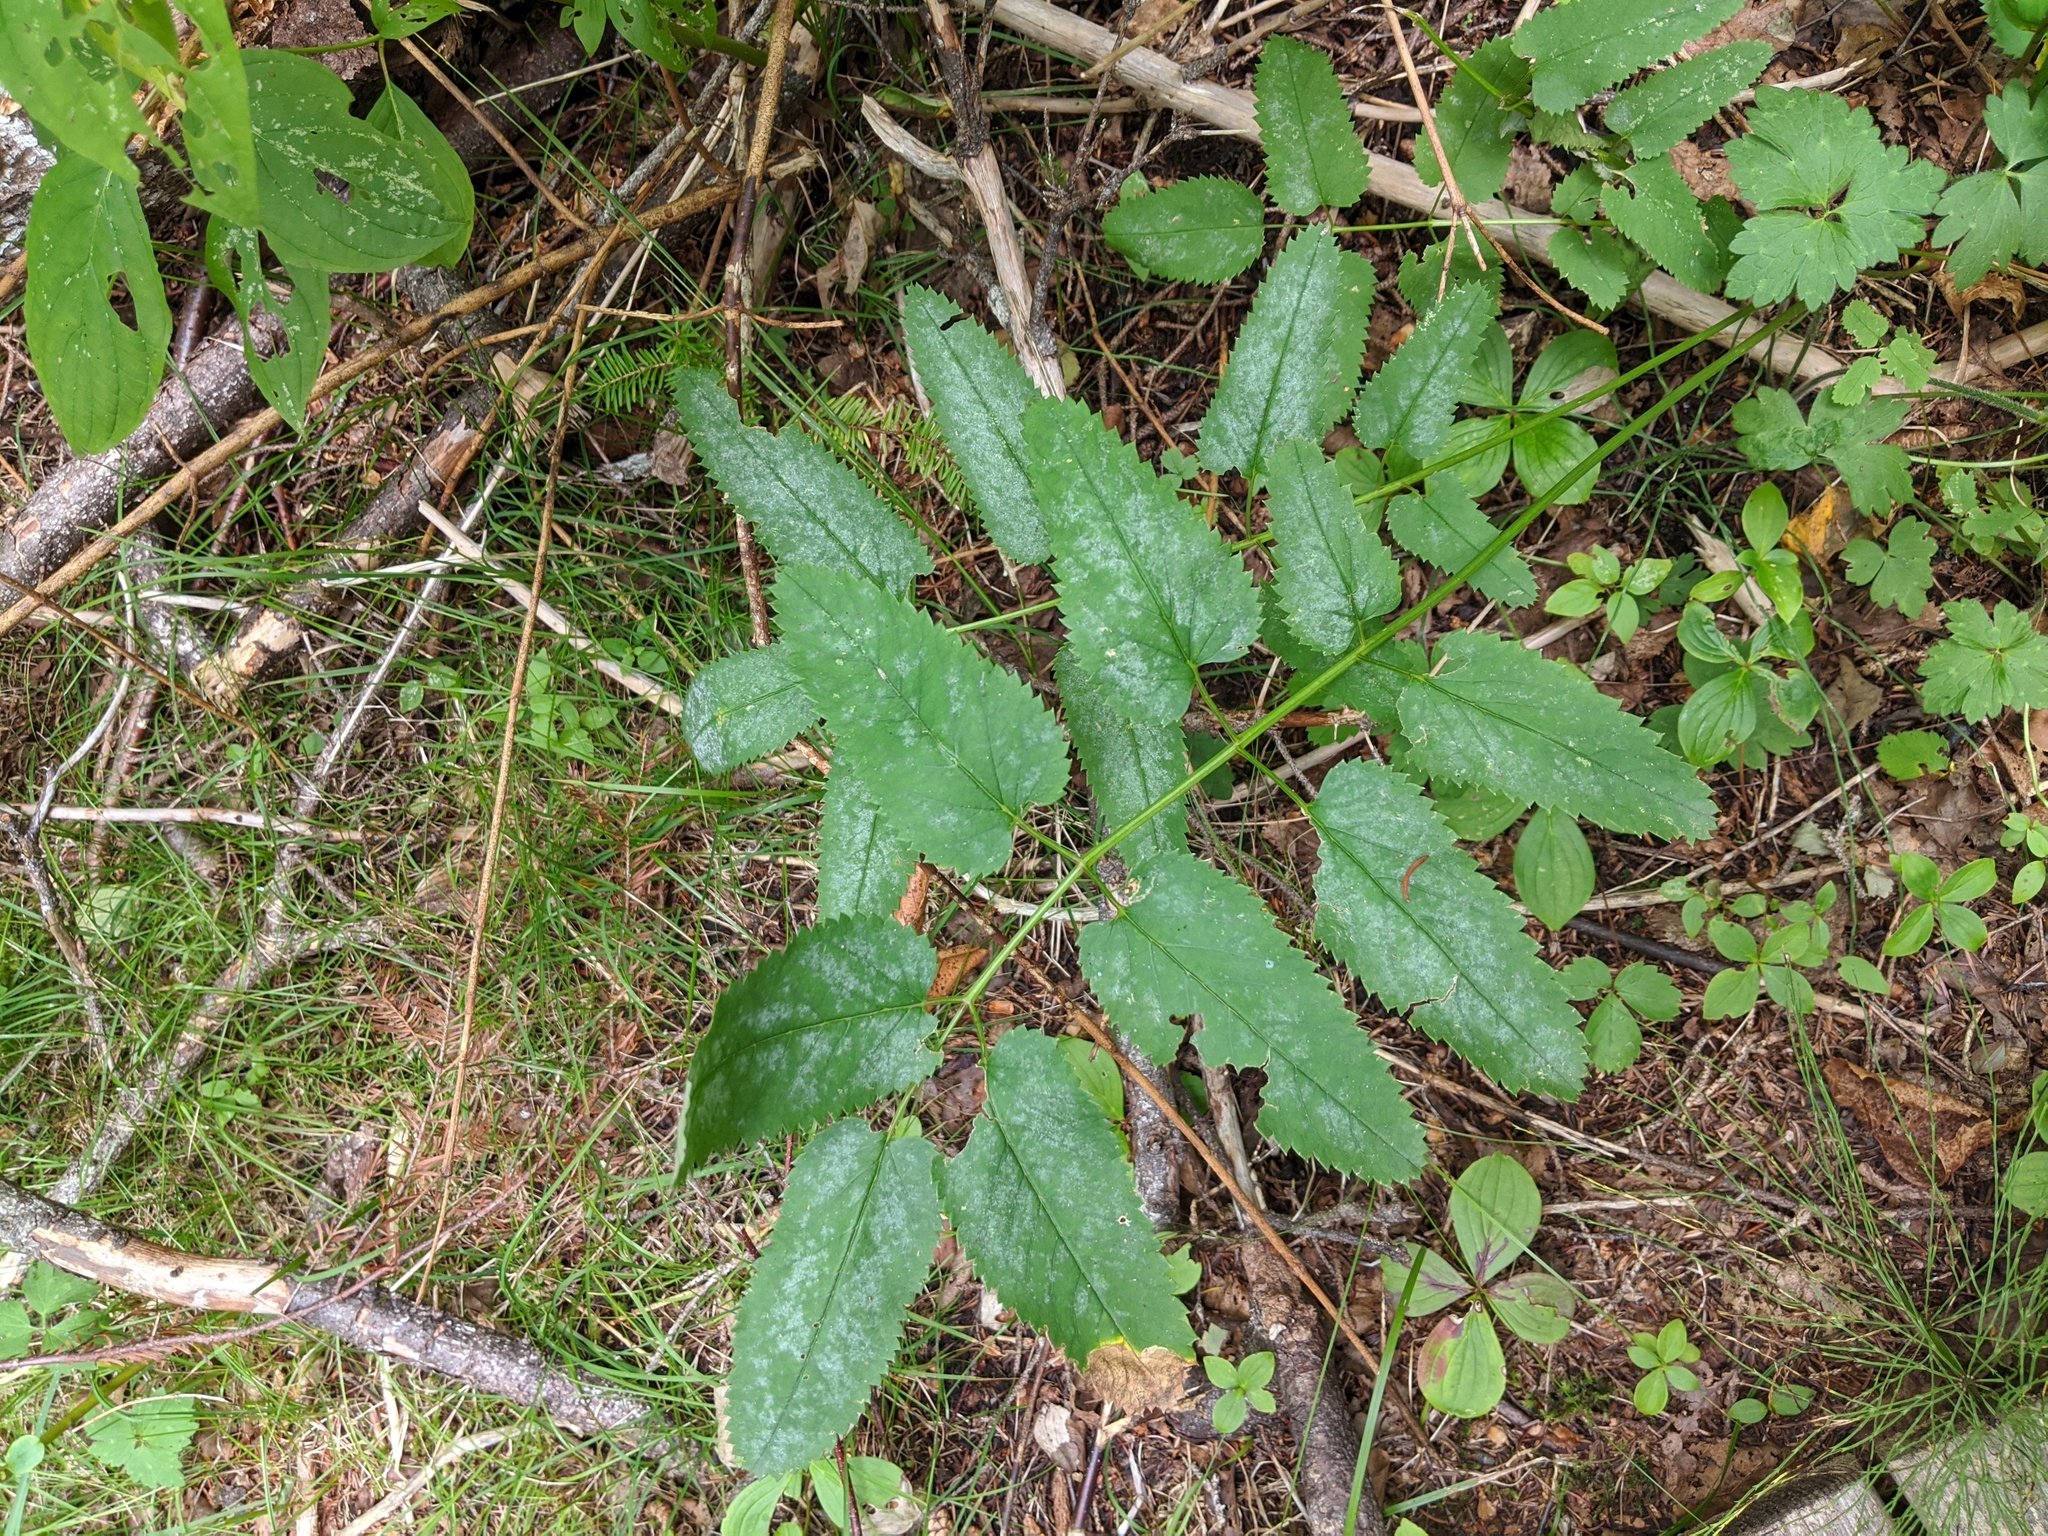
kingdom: Plantae
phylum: Tracheophyta
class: Magnoliopsida
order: Rosales
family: Rosaceae
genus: Sanguisorba
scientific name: Sanguisorba canadensis
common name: White burnet
